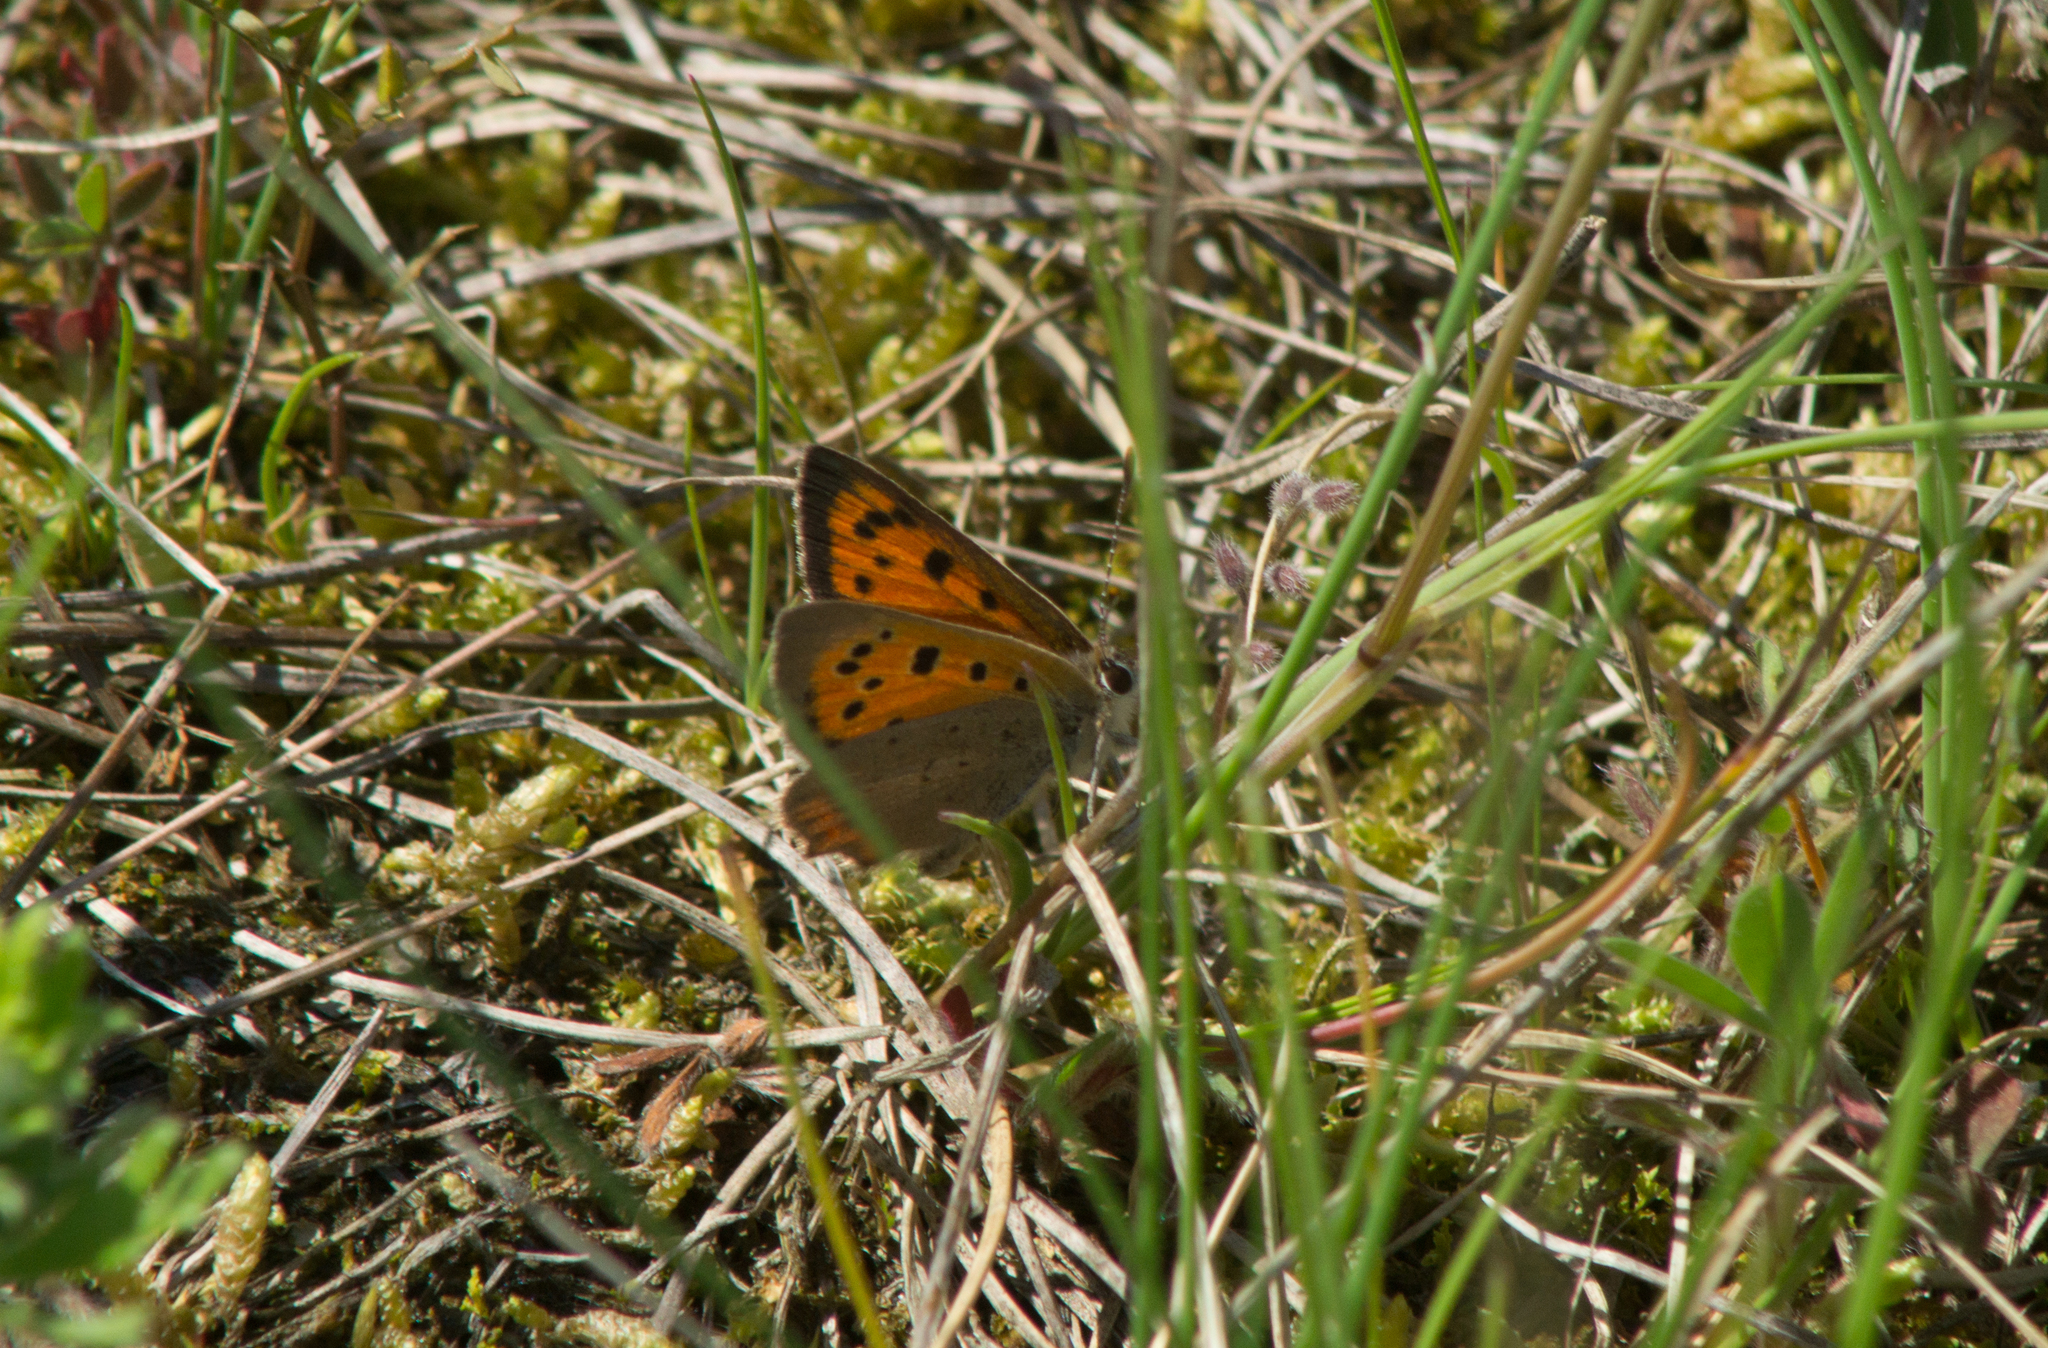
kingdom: Animalia
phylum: Arthropoda
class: Insecta
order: Lepidoptera
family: Lycaenidae
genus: Lycaena
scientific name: Lycaena phlaeas
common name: Small copper
